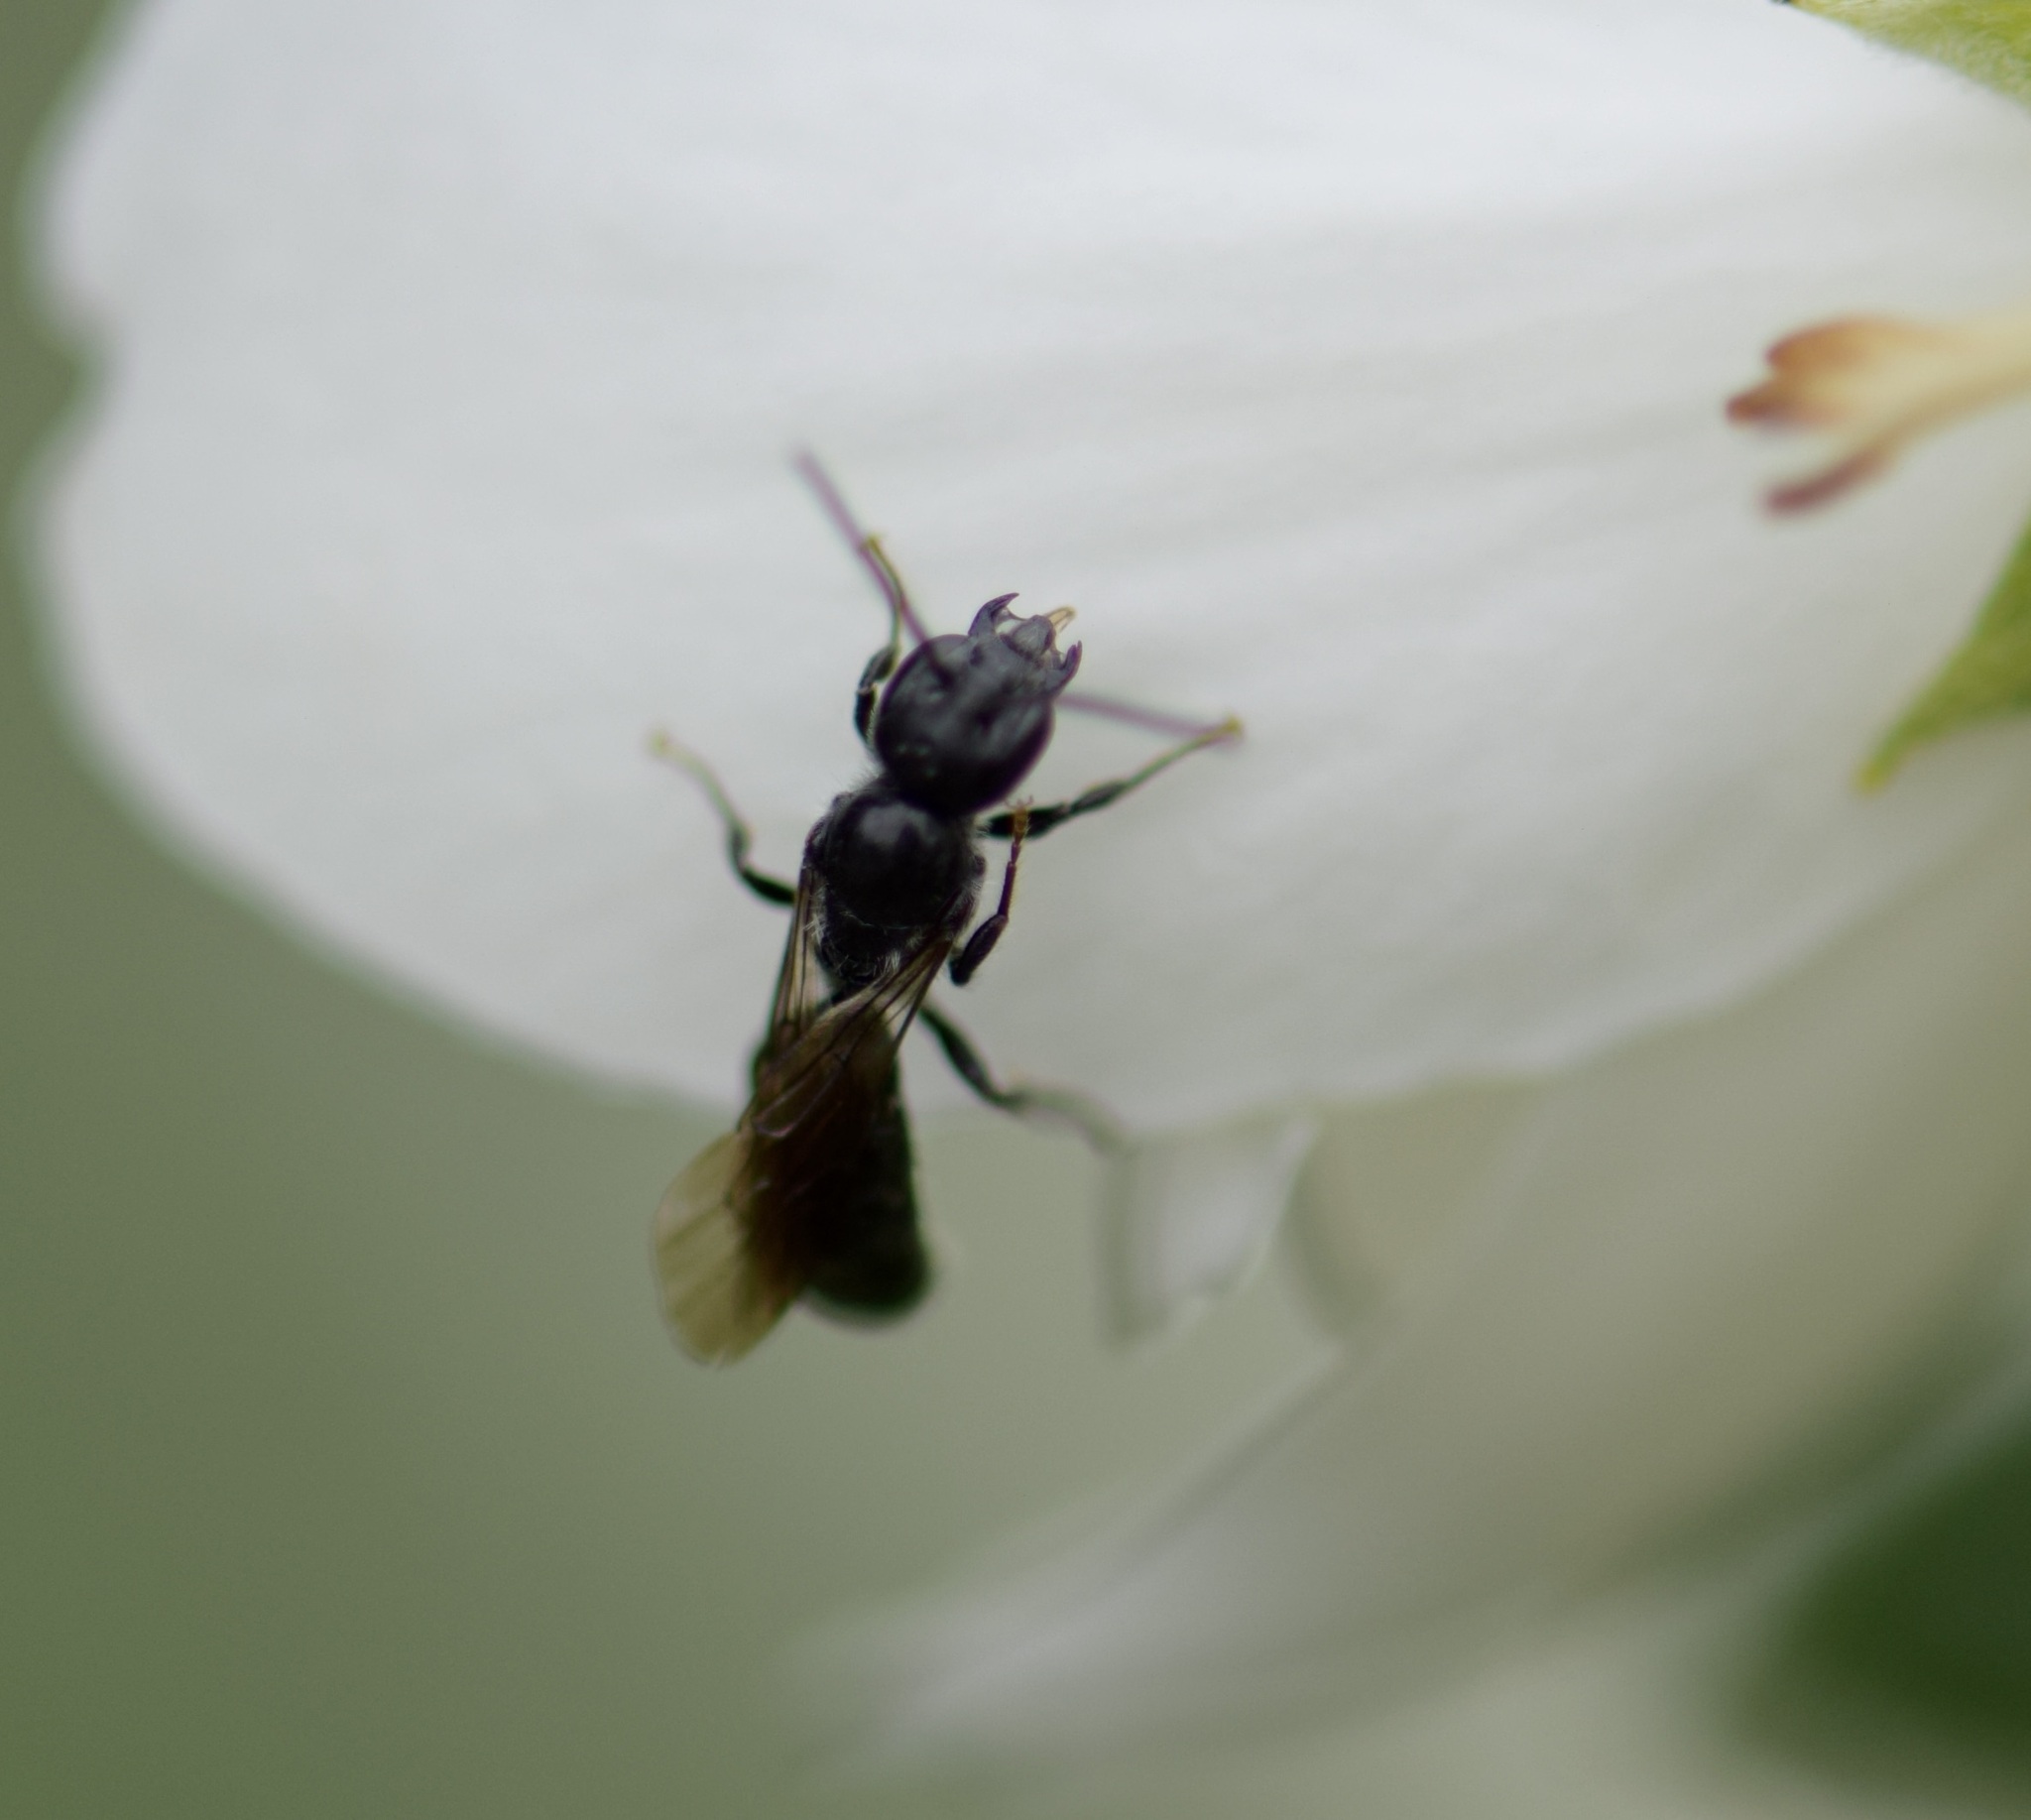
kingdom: Animalia
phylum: Arthropoda
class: Insecta
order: Hymenoptera
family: Megachilidae
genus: Chelostoma
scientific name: Chelostoma philadelphi
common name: Mock-orange scissor bee
